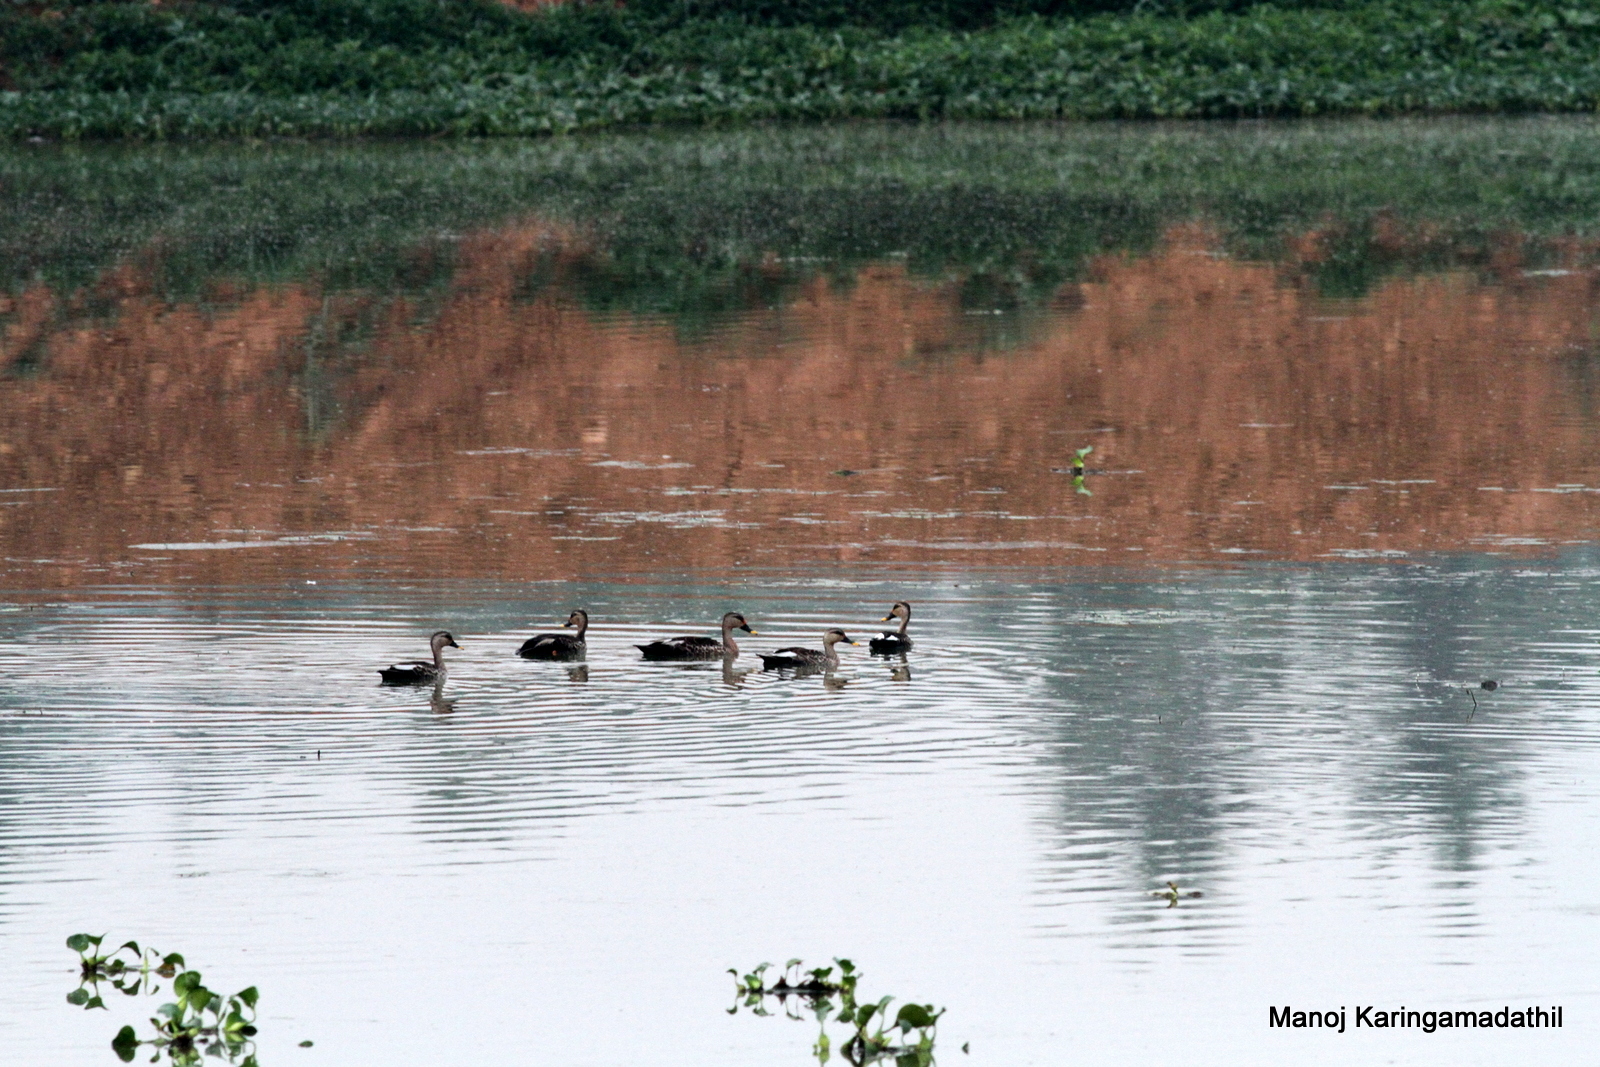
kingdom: Animalia
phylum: Chordata
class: Aves
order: Anseriformes
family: Anatidae
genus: Anas
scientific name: Anas poecilorhyncha
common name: Indian spot-billed duck
